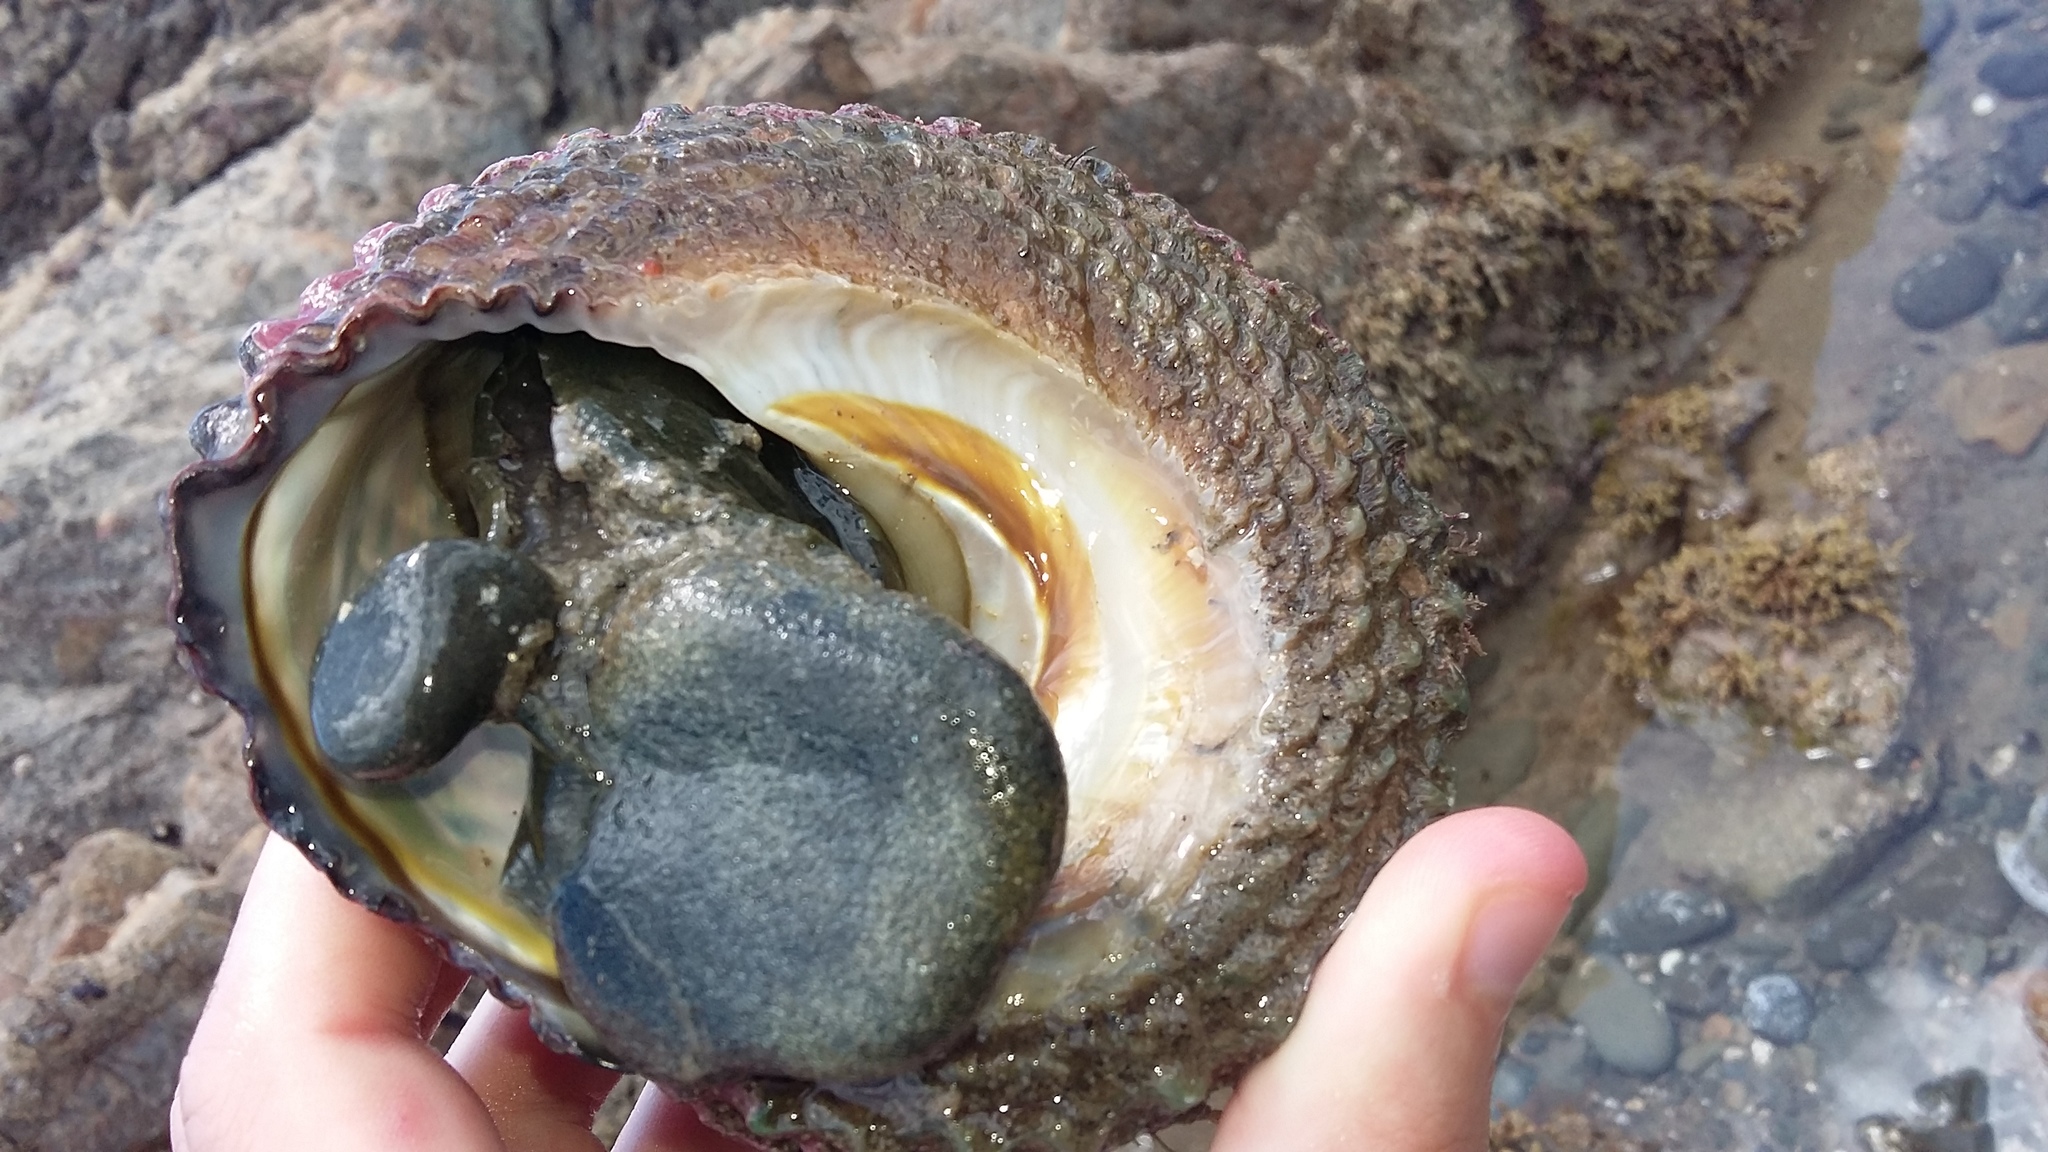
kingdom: Animalia
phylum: Mollusca
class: Gastropoda
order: Trochida
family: Turbinidae
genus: Cookia
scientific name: Cookia sulcata
